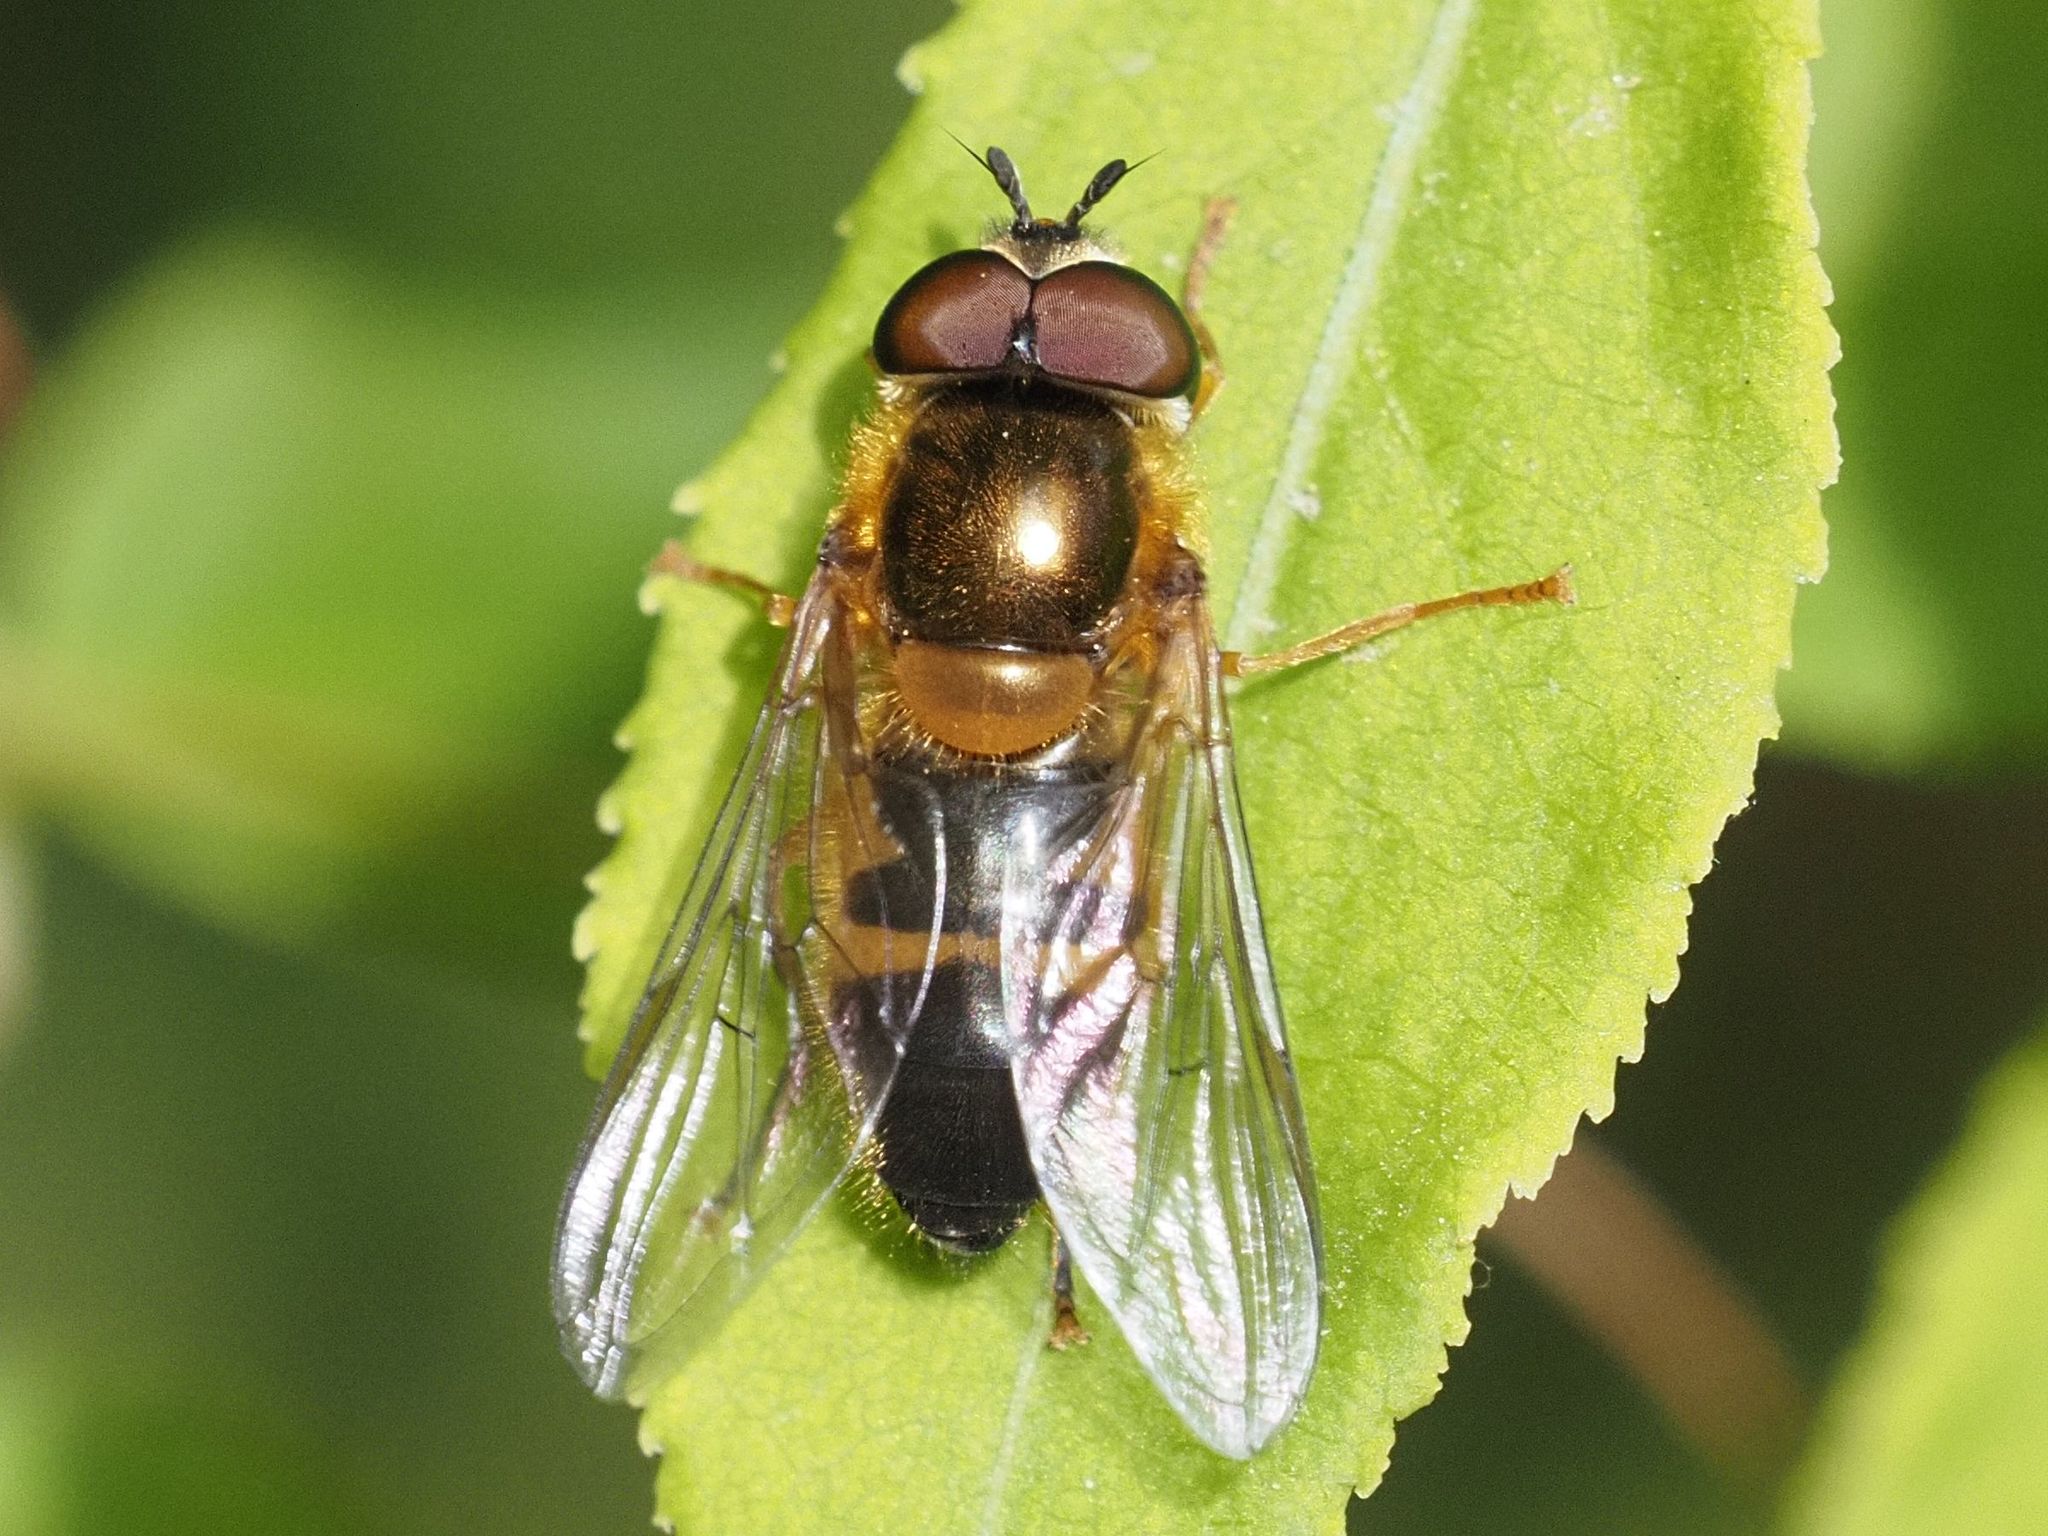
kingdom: Animalia
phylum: Arthropoda
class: Insecta
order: Diptera
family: Syrphidae
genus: Epistrophe
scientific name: Epistrophe eligans
